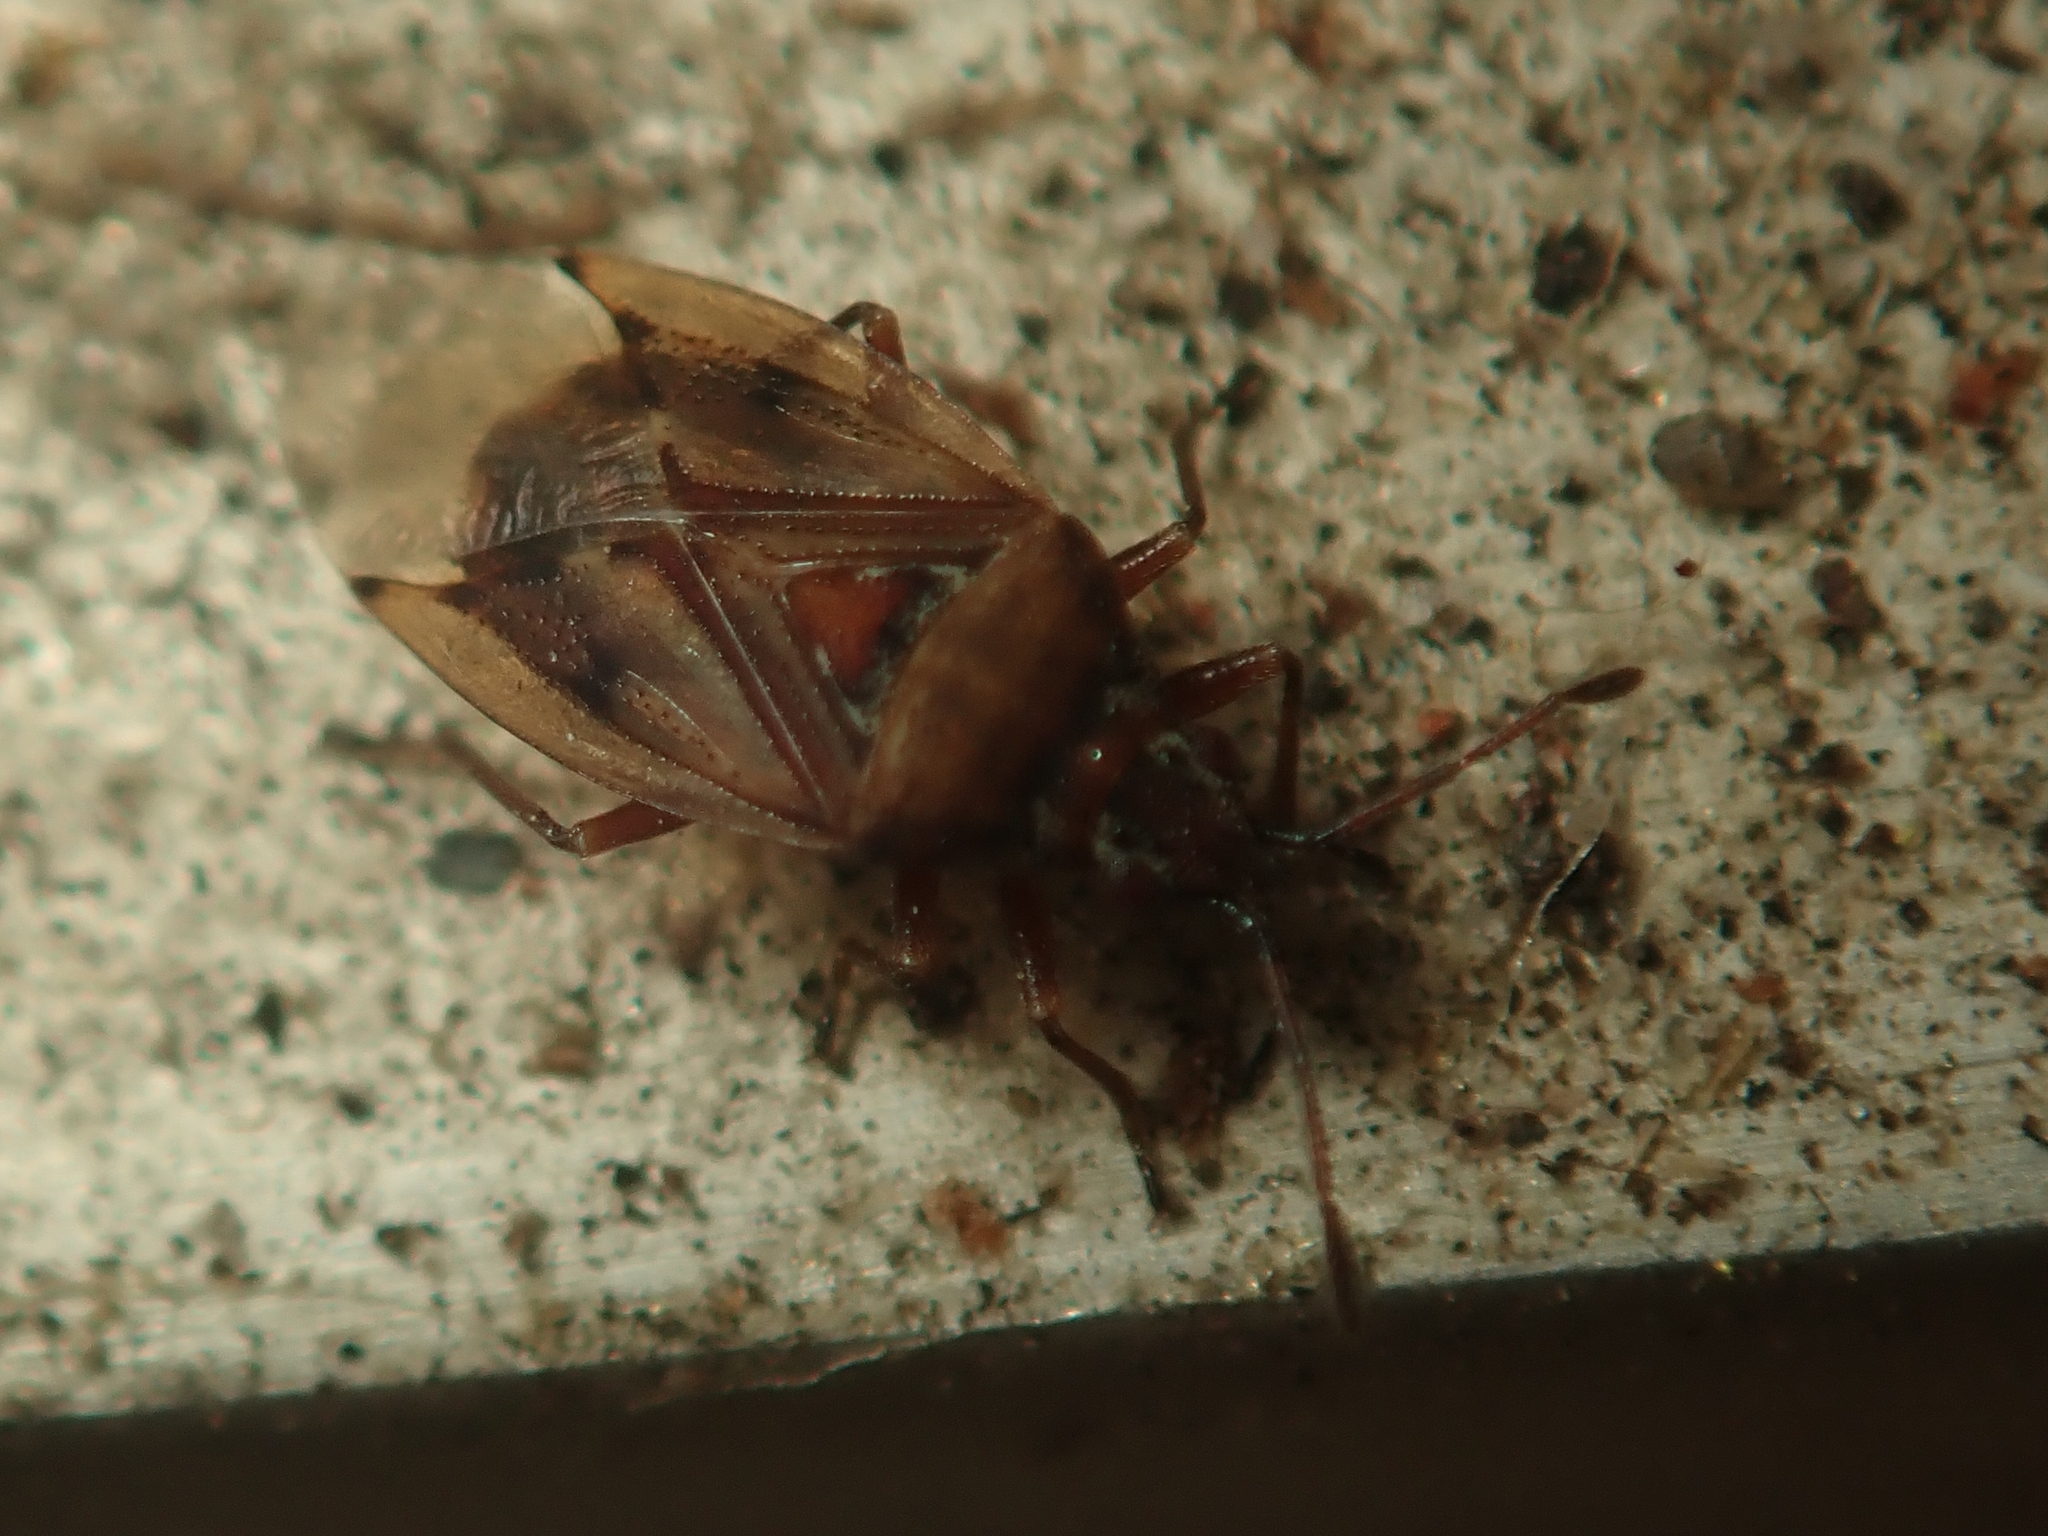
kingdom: Animalia
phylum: Arthropoda
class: Insecta
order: Hemiptera
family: Lygaeidae
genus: Kleidocerys
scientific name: Kleidocerys resedae
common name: Birch catkin bug
